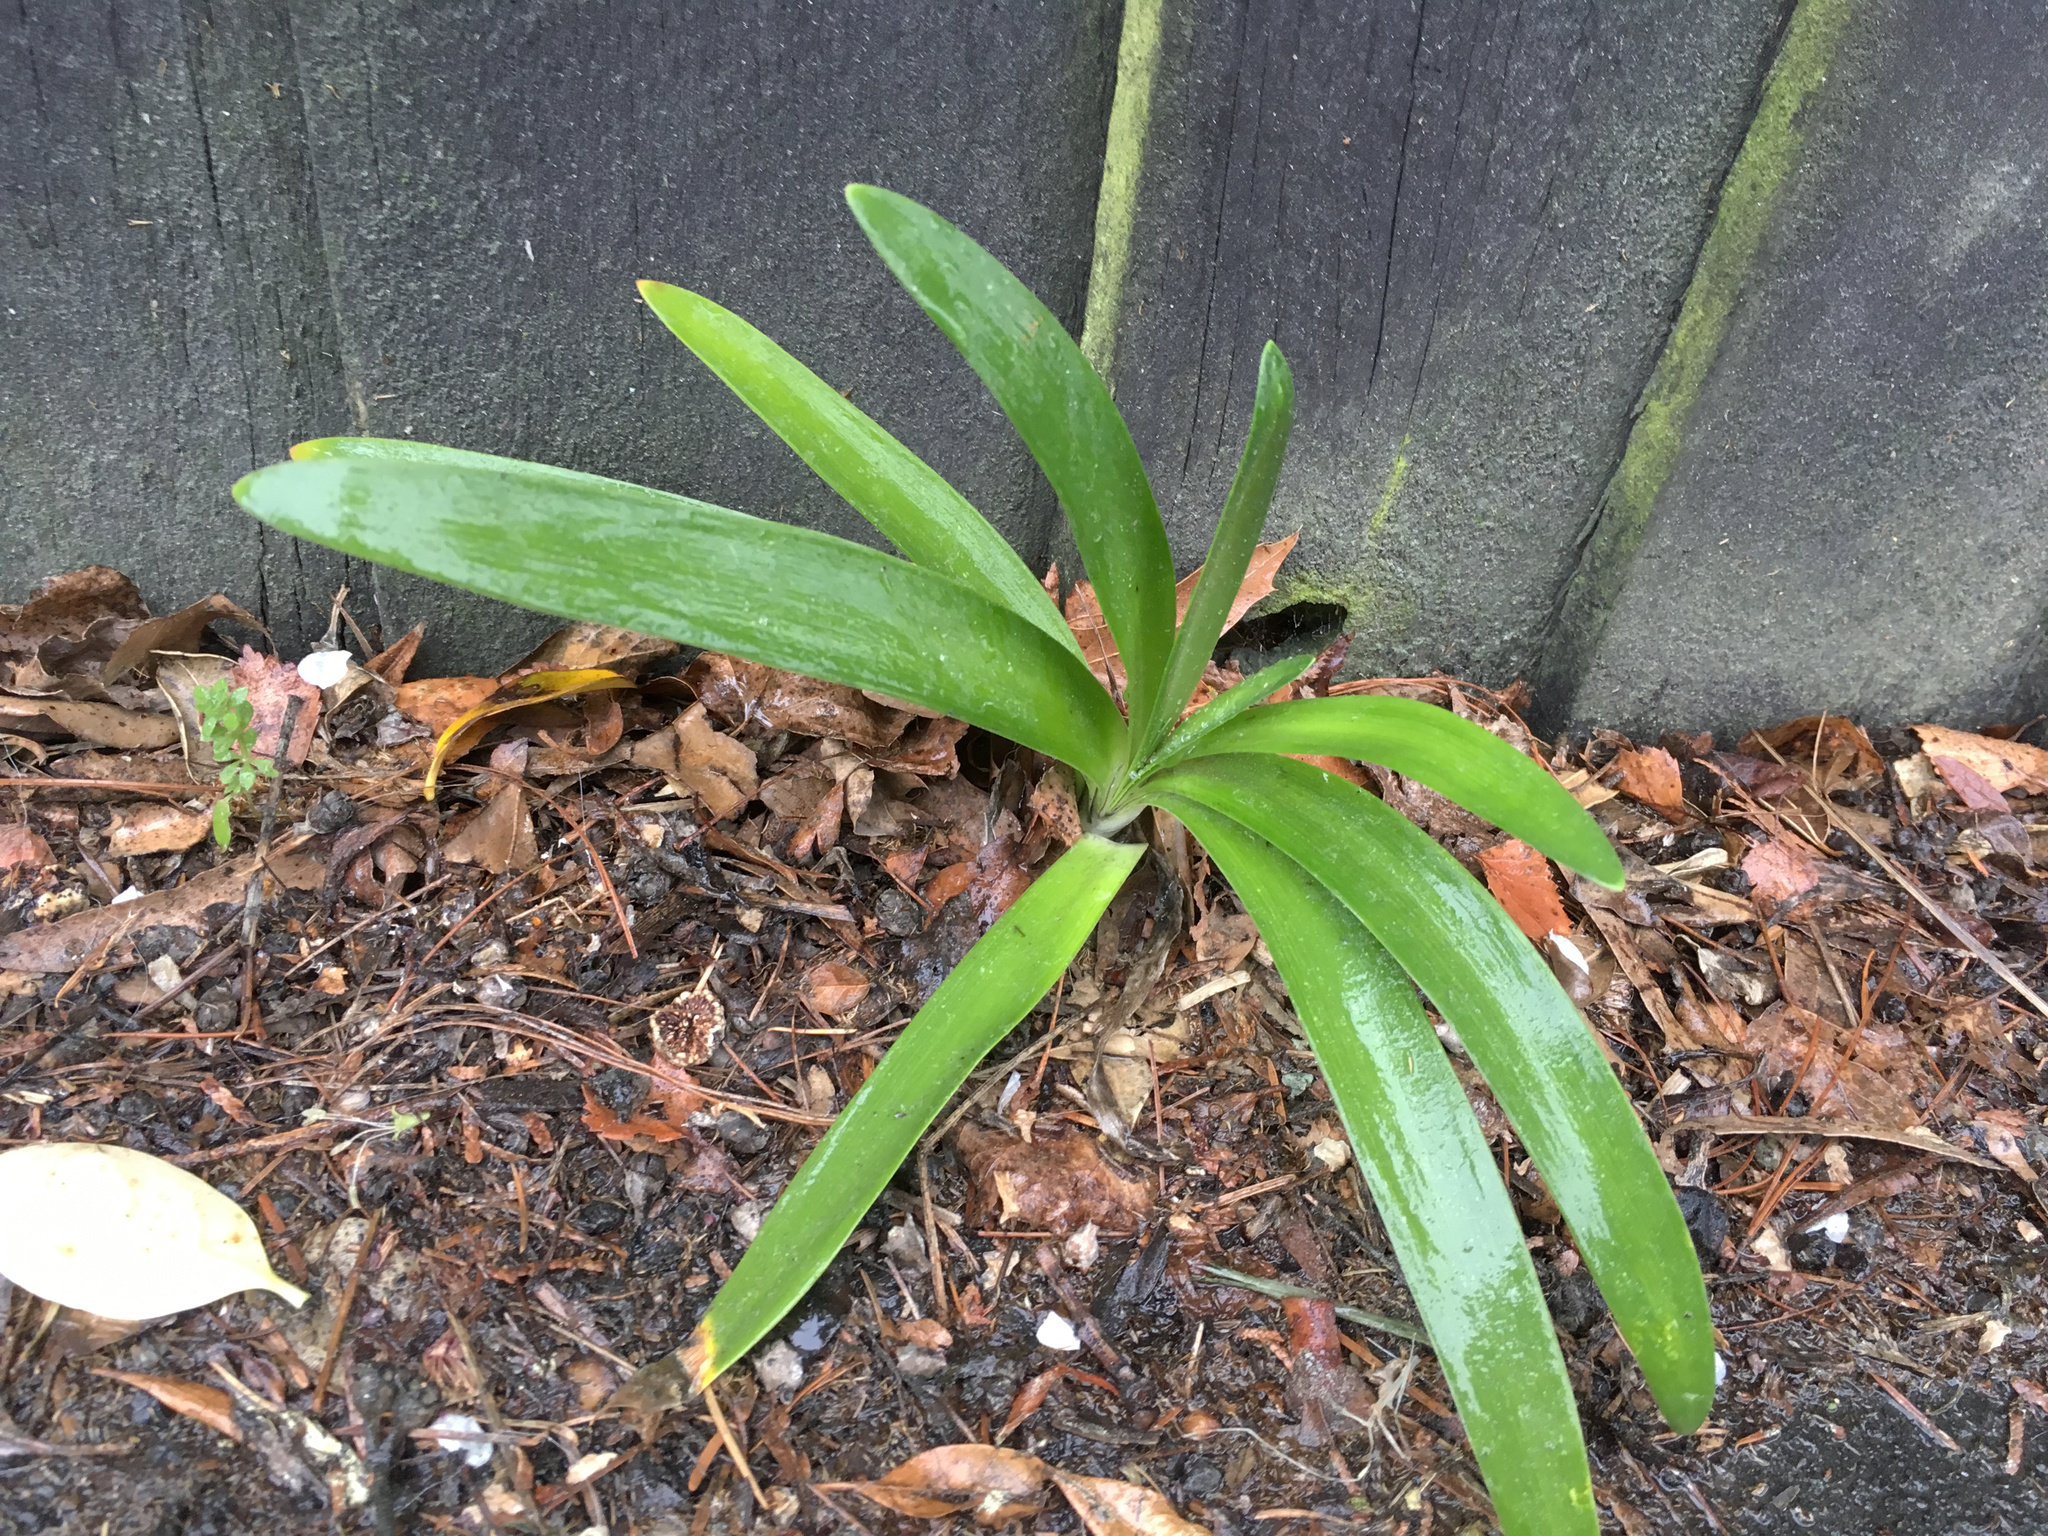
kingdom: Plantae
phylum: Tracheophyta
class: Liliopsida
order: Asparagales
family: Amaryllidaceae
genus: Agapanthus
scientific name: Agapanthus praecox
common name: African-lily
